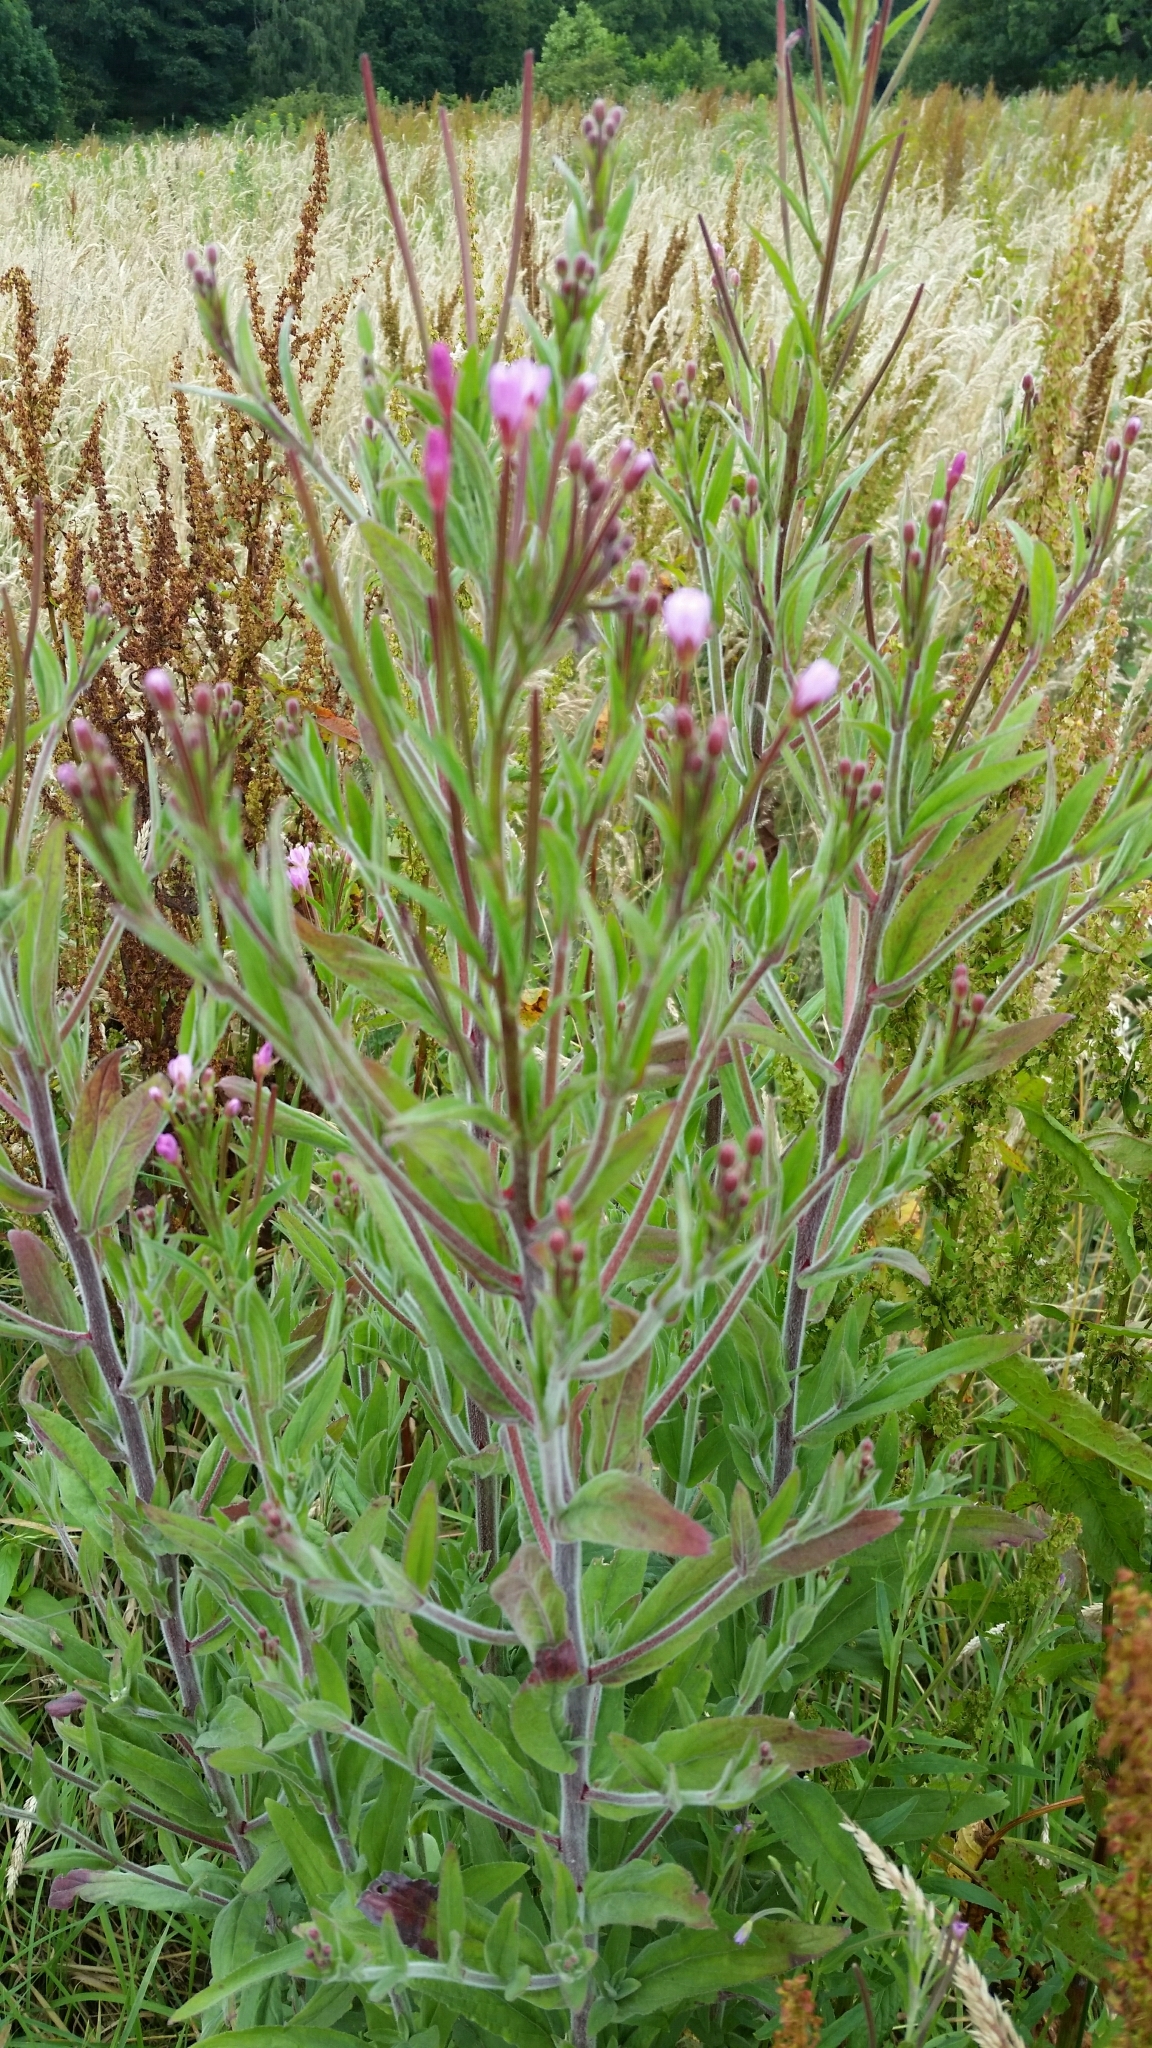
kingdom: Plantae
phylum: Tracheophyta
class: Magnoliopsida
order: Myrtales
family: Onagraceae
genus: Epilobium
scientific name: Epilobium parviflorum
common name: Hoary willowherb
